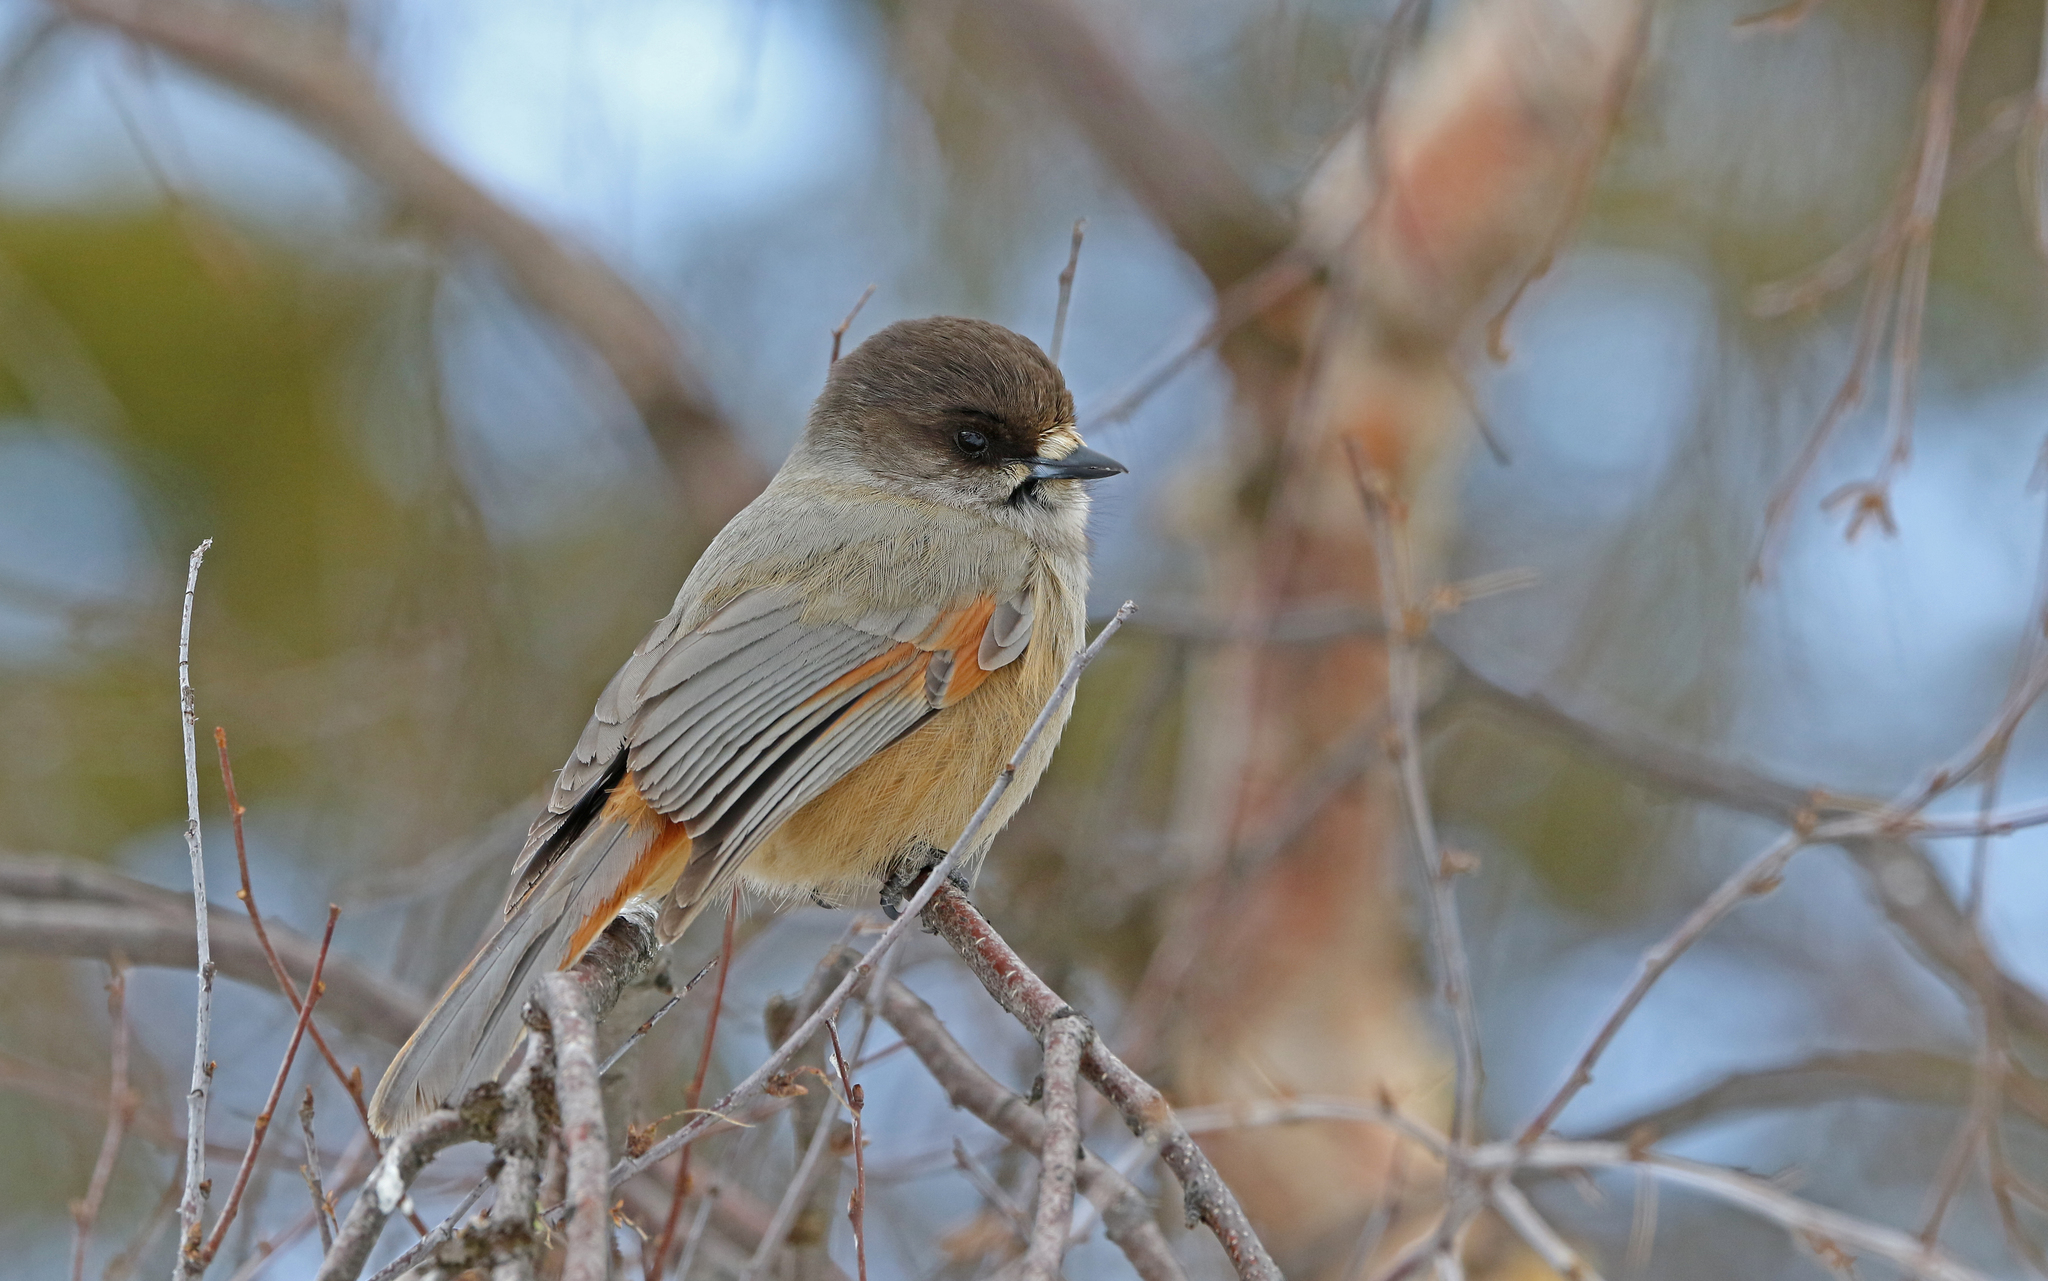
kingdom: Animalia
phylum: Chordata
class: Aves
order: Passeriformes
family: Corvidae
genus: Perisoreus
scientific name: Perisoreus infaustus
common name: Siberian jay
